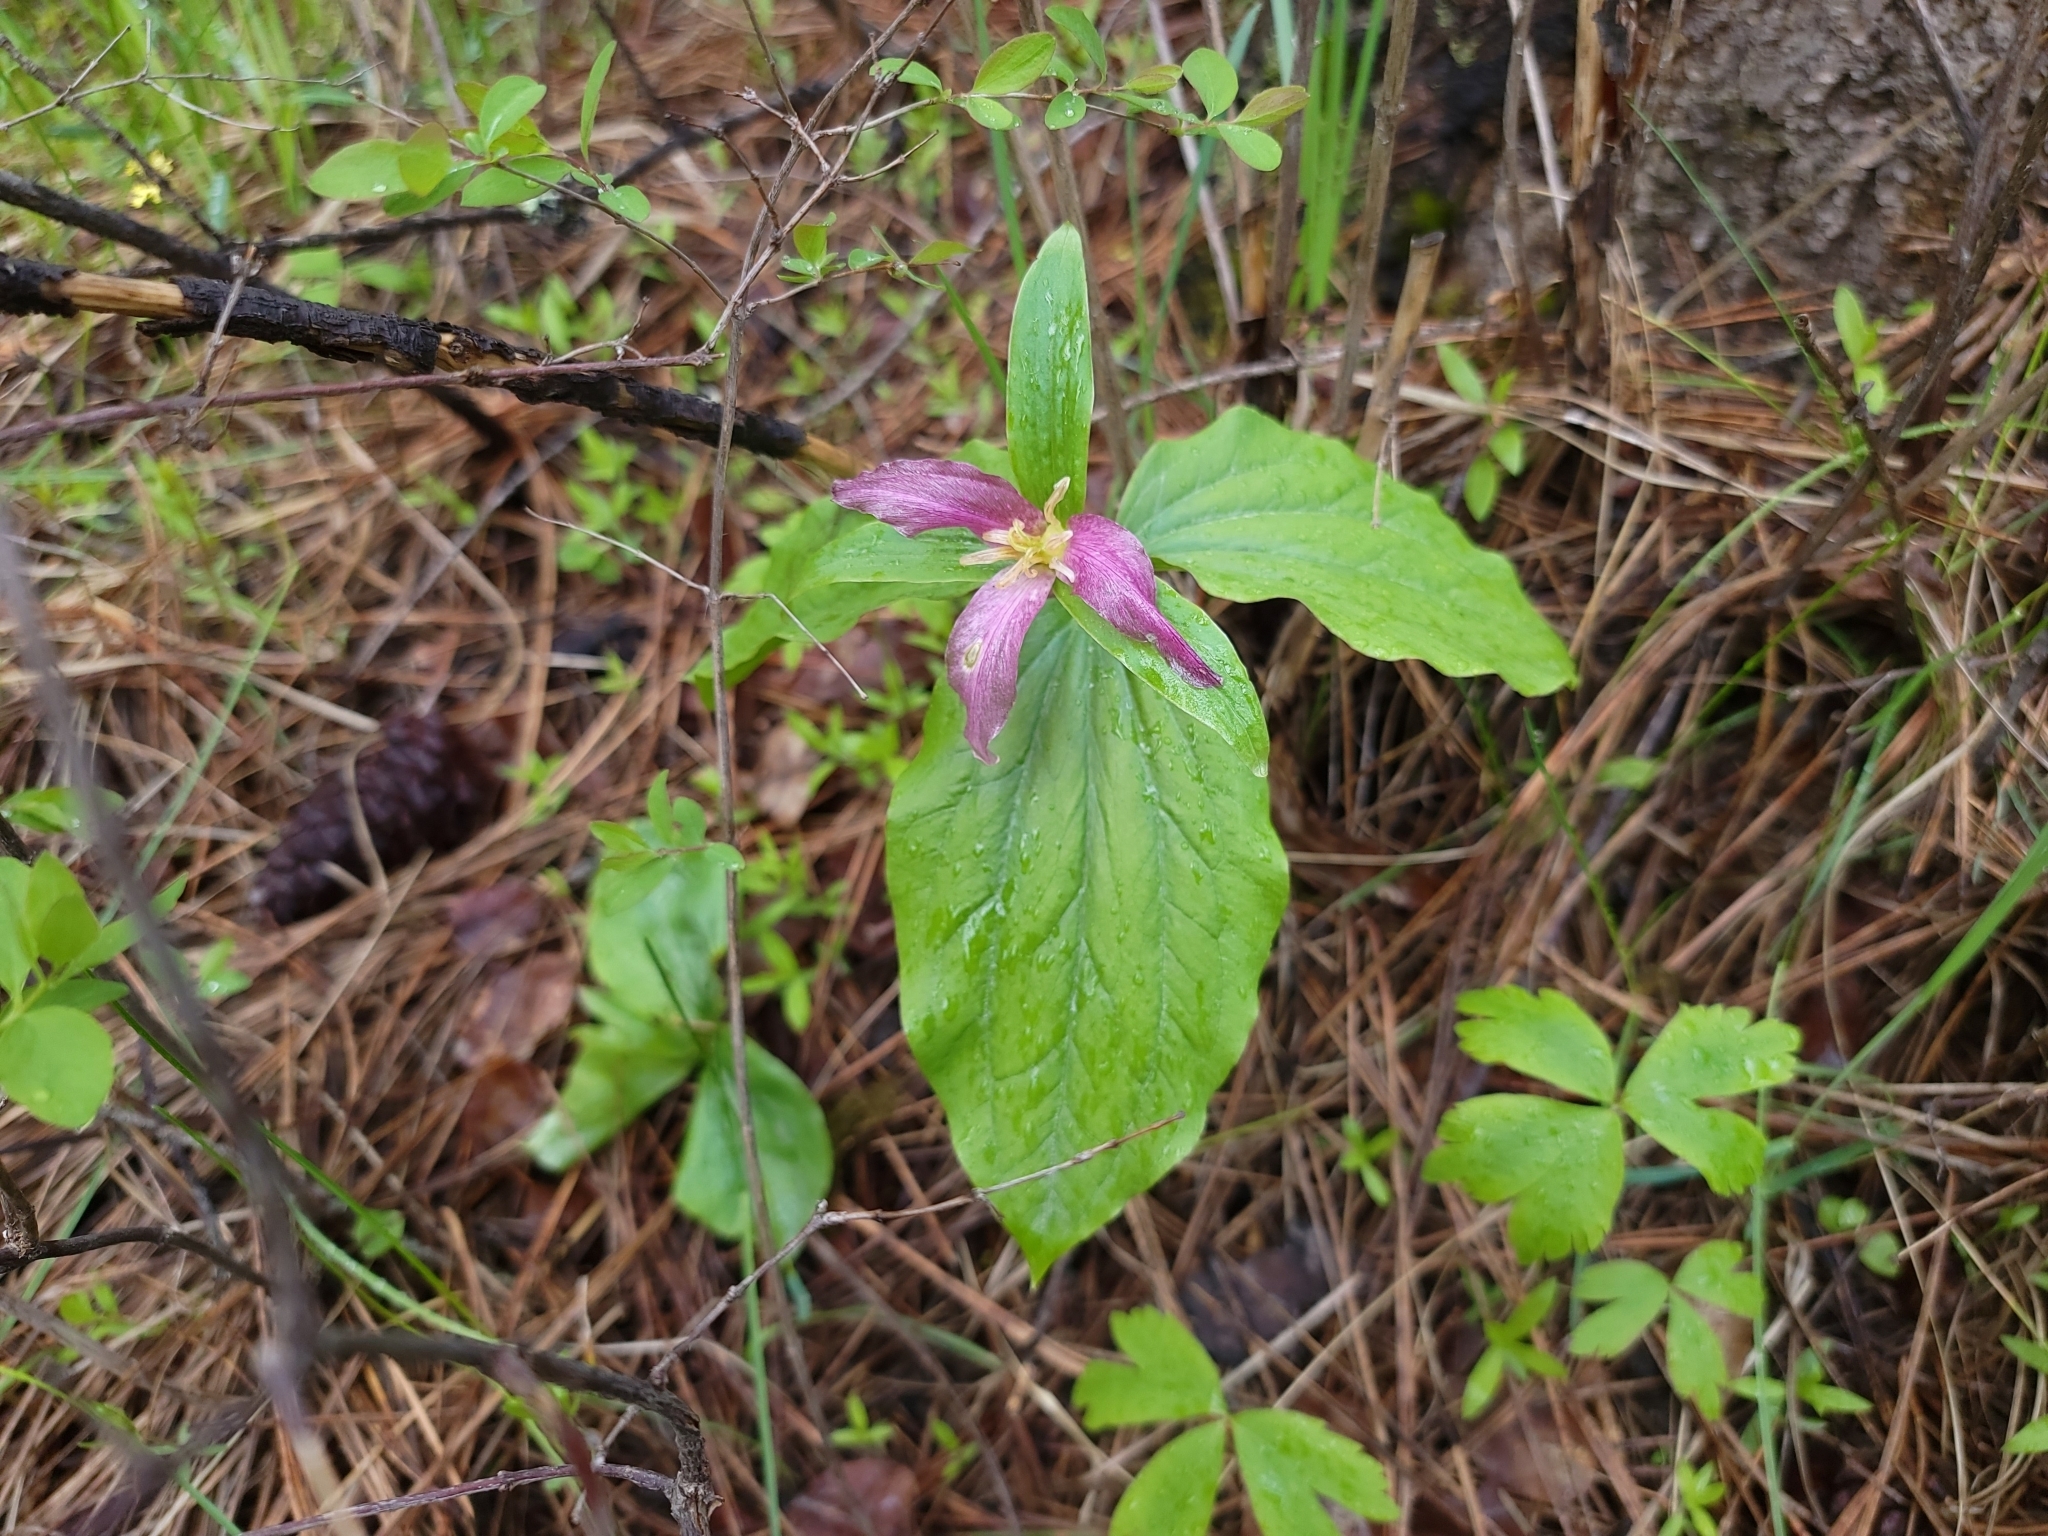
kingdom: Plantae
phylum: Tracheophyta
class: Liliopsida
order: Liliales
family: Melanthiaceae
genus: Trillium
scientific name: Trillium ovatum
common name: Pacific trillium
